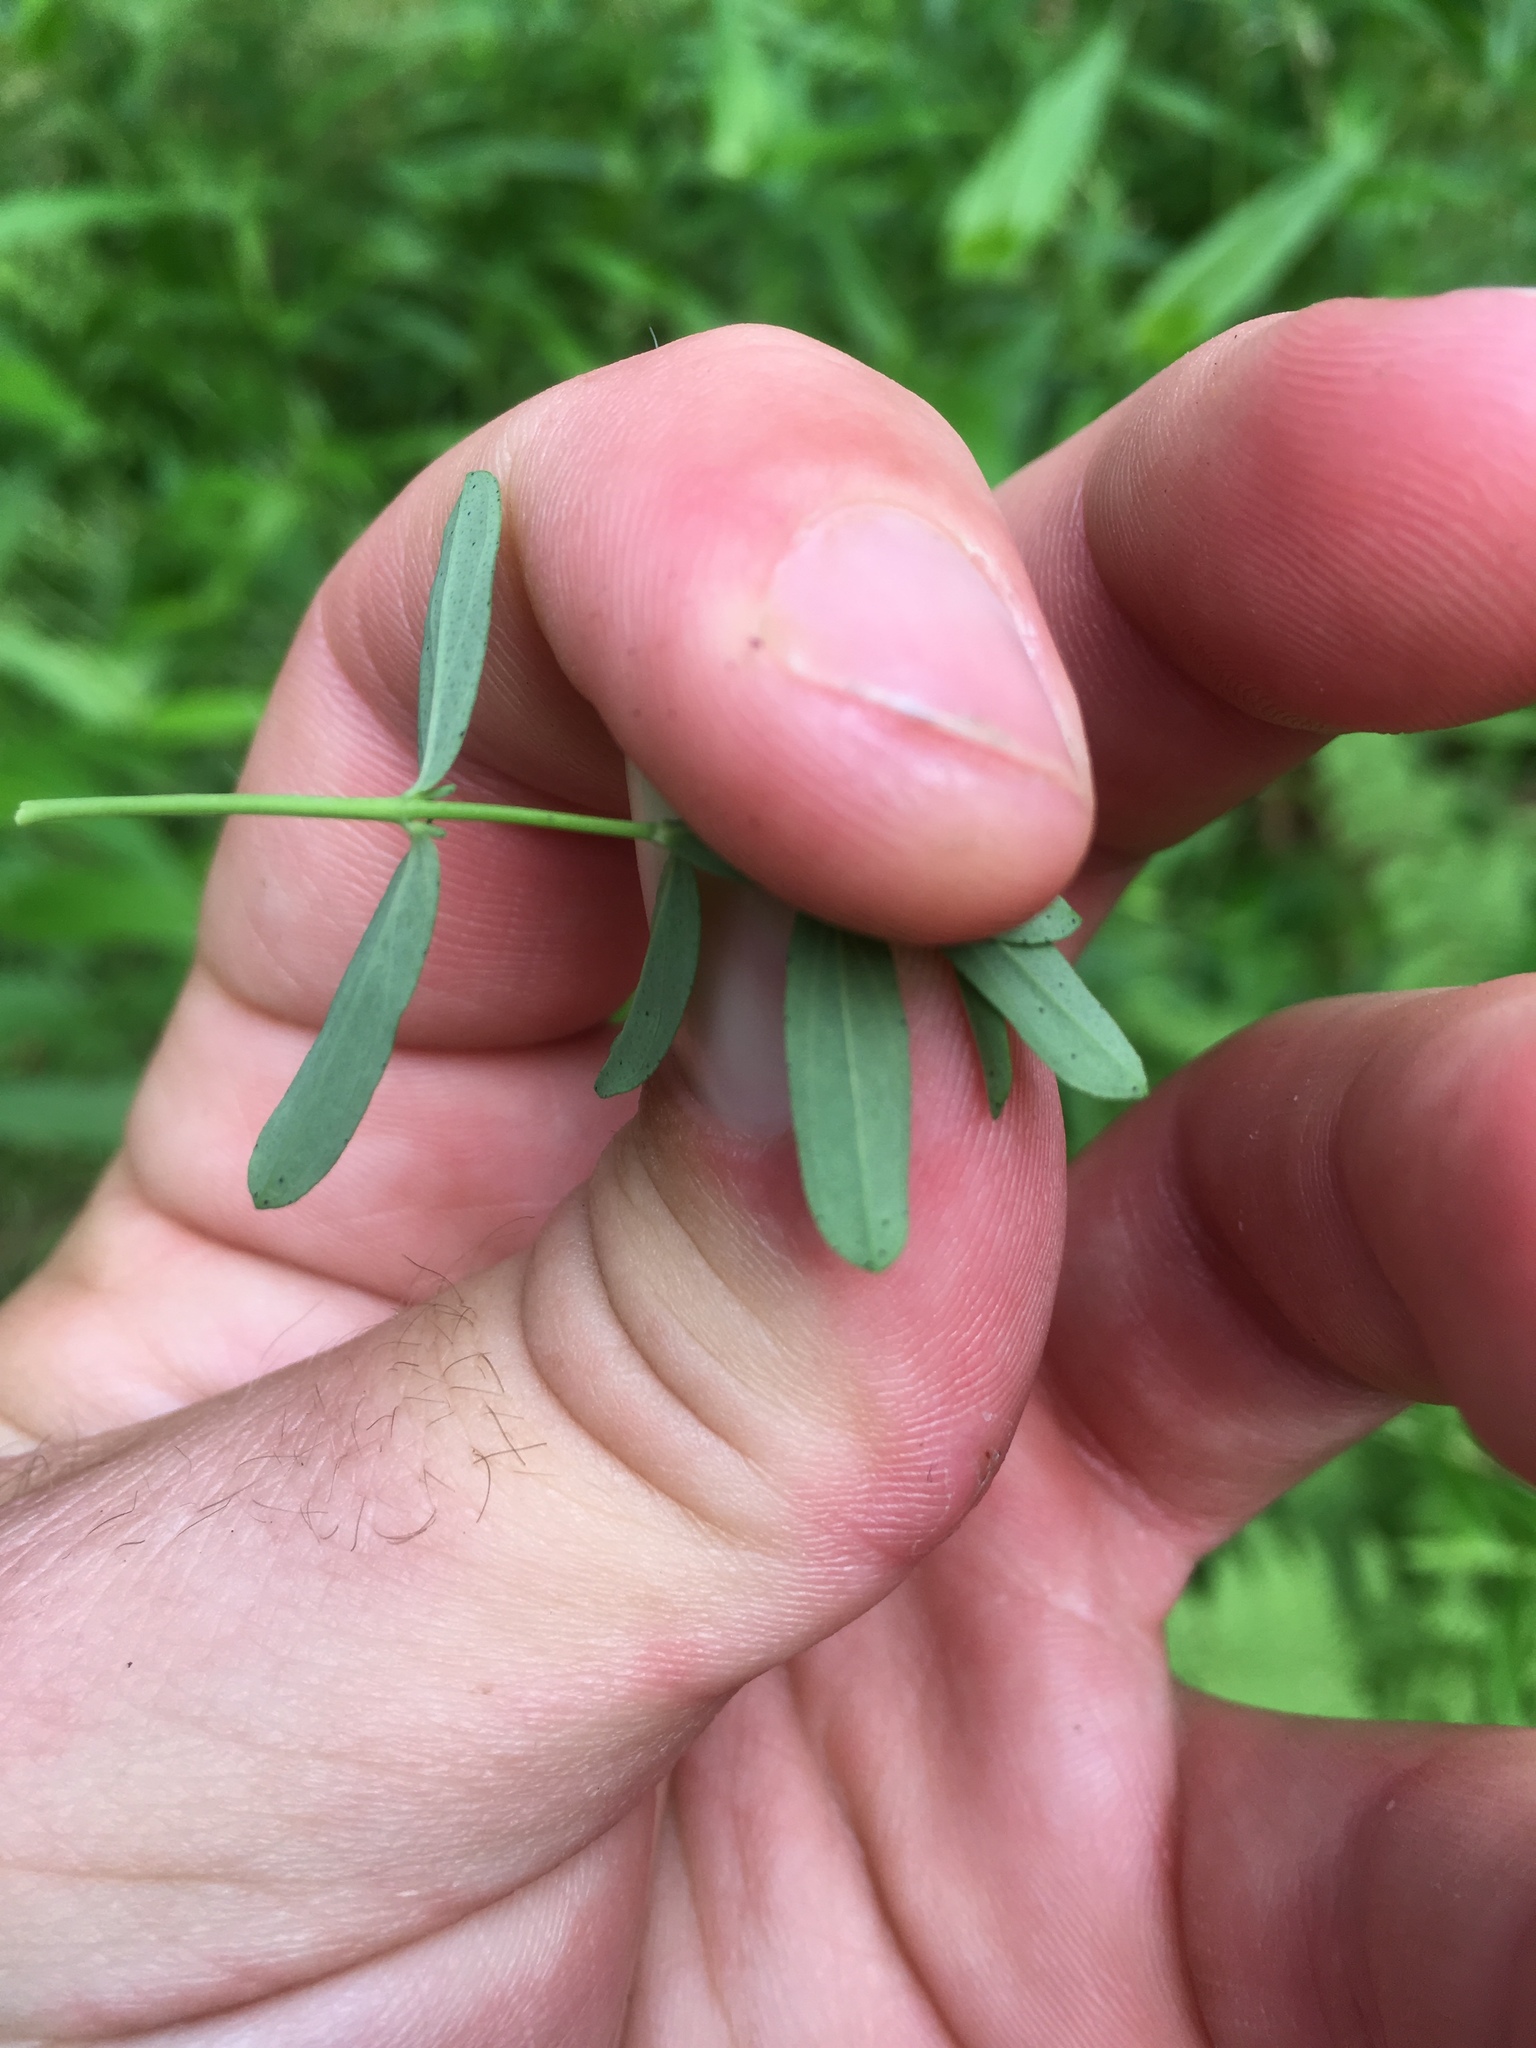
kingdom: Plantae
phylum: Tracheophyta
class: Magnoliopsida
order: Malpighiales
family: Hypericaceae
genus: Hypericum
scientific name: Hypericum perforatum
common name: Common st. johnswort
